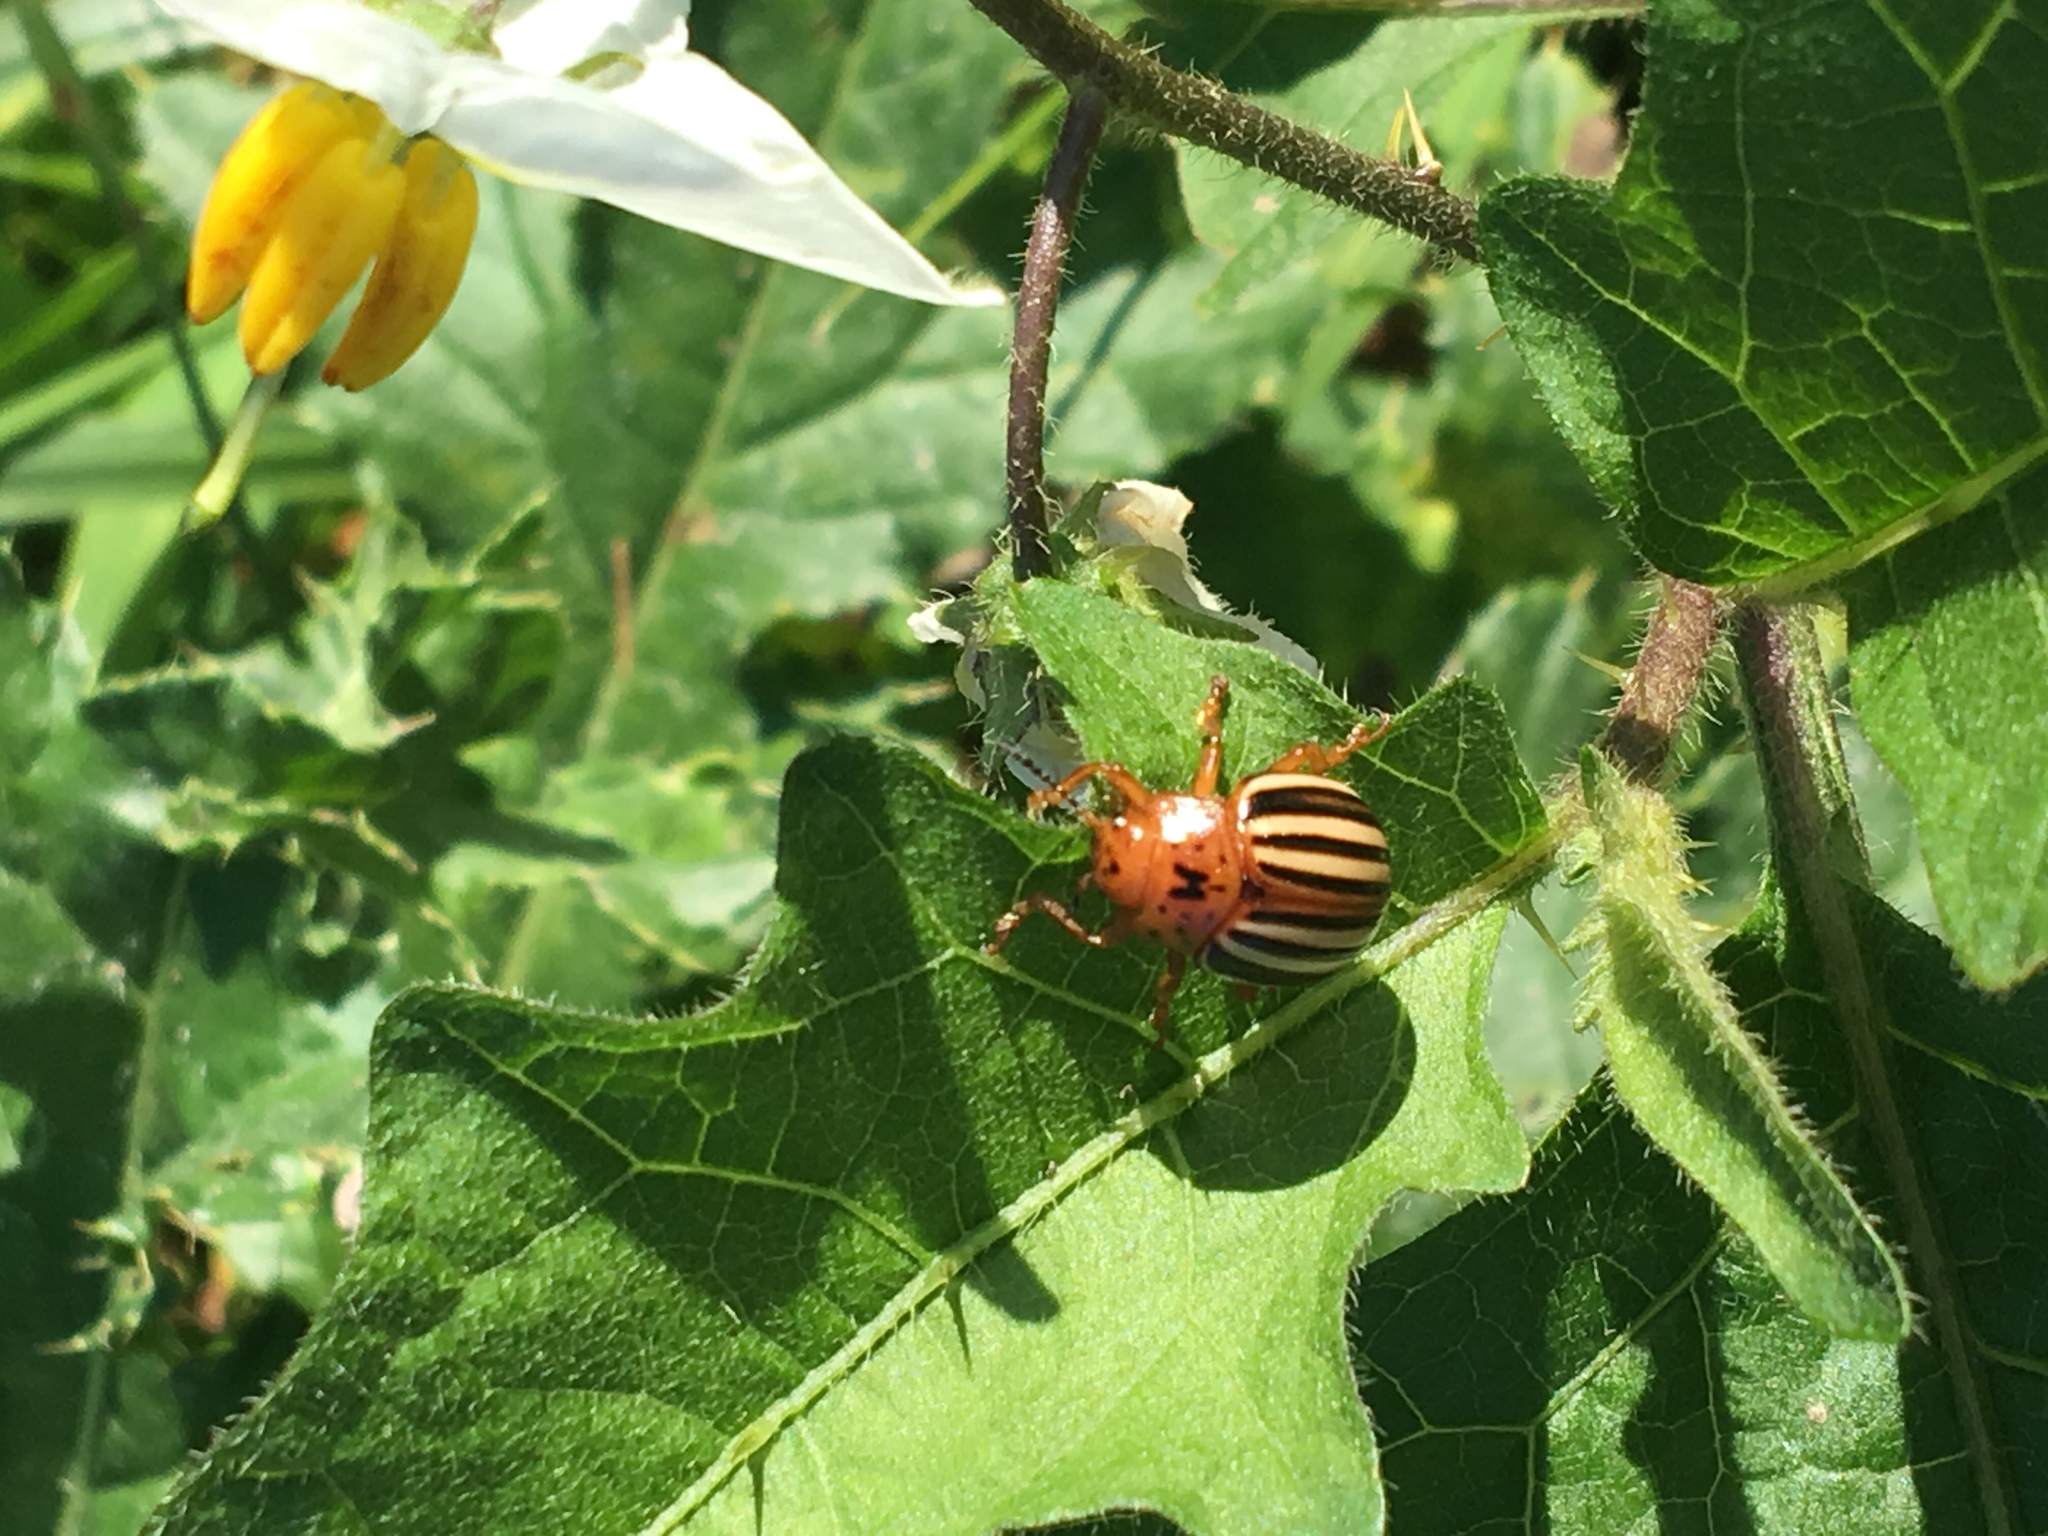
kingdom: Animalia
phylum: Arthropoda
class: Insecta
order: Coleoptera
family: Chrysomelidae
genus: Leptinotarsa
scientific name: Leptinotarsa juncta
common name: False potato beetle
